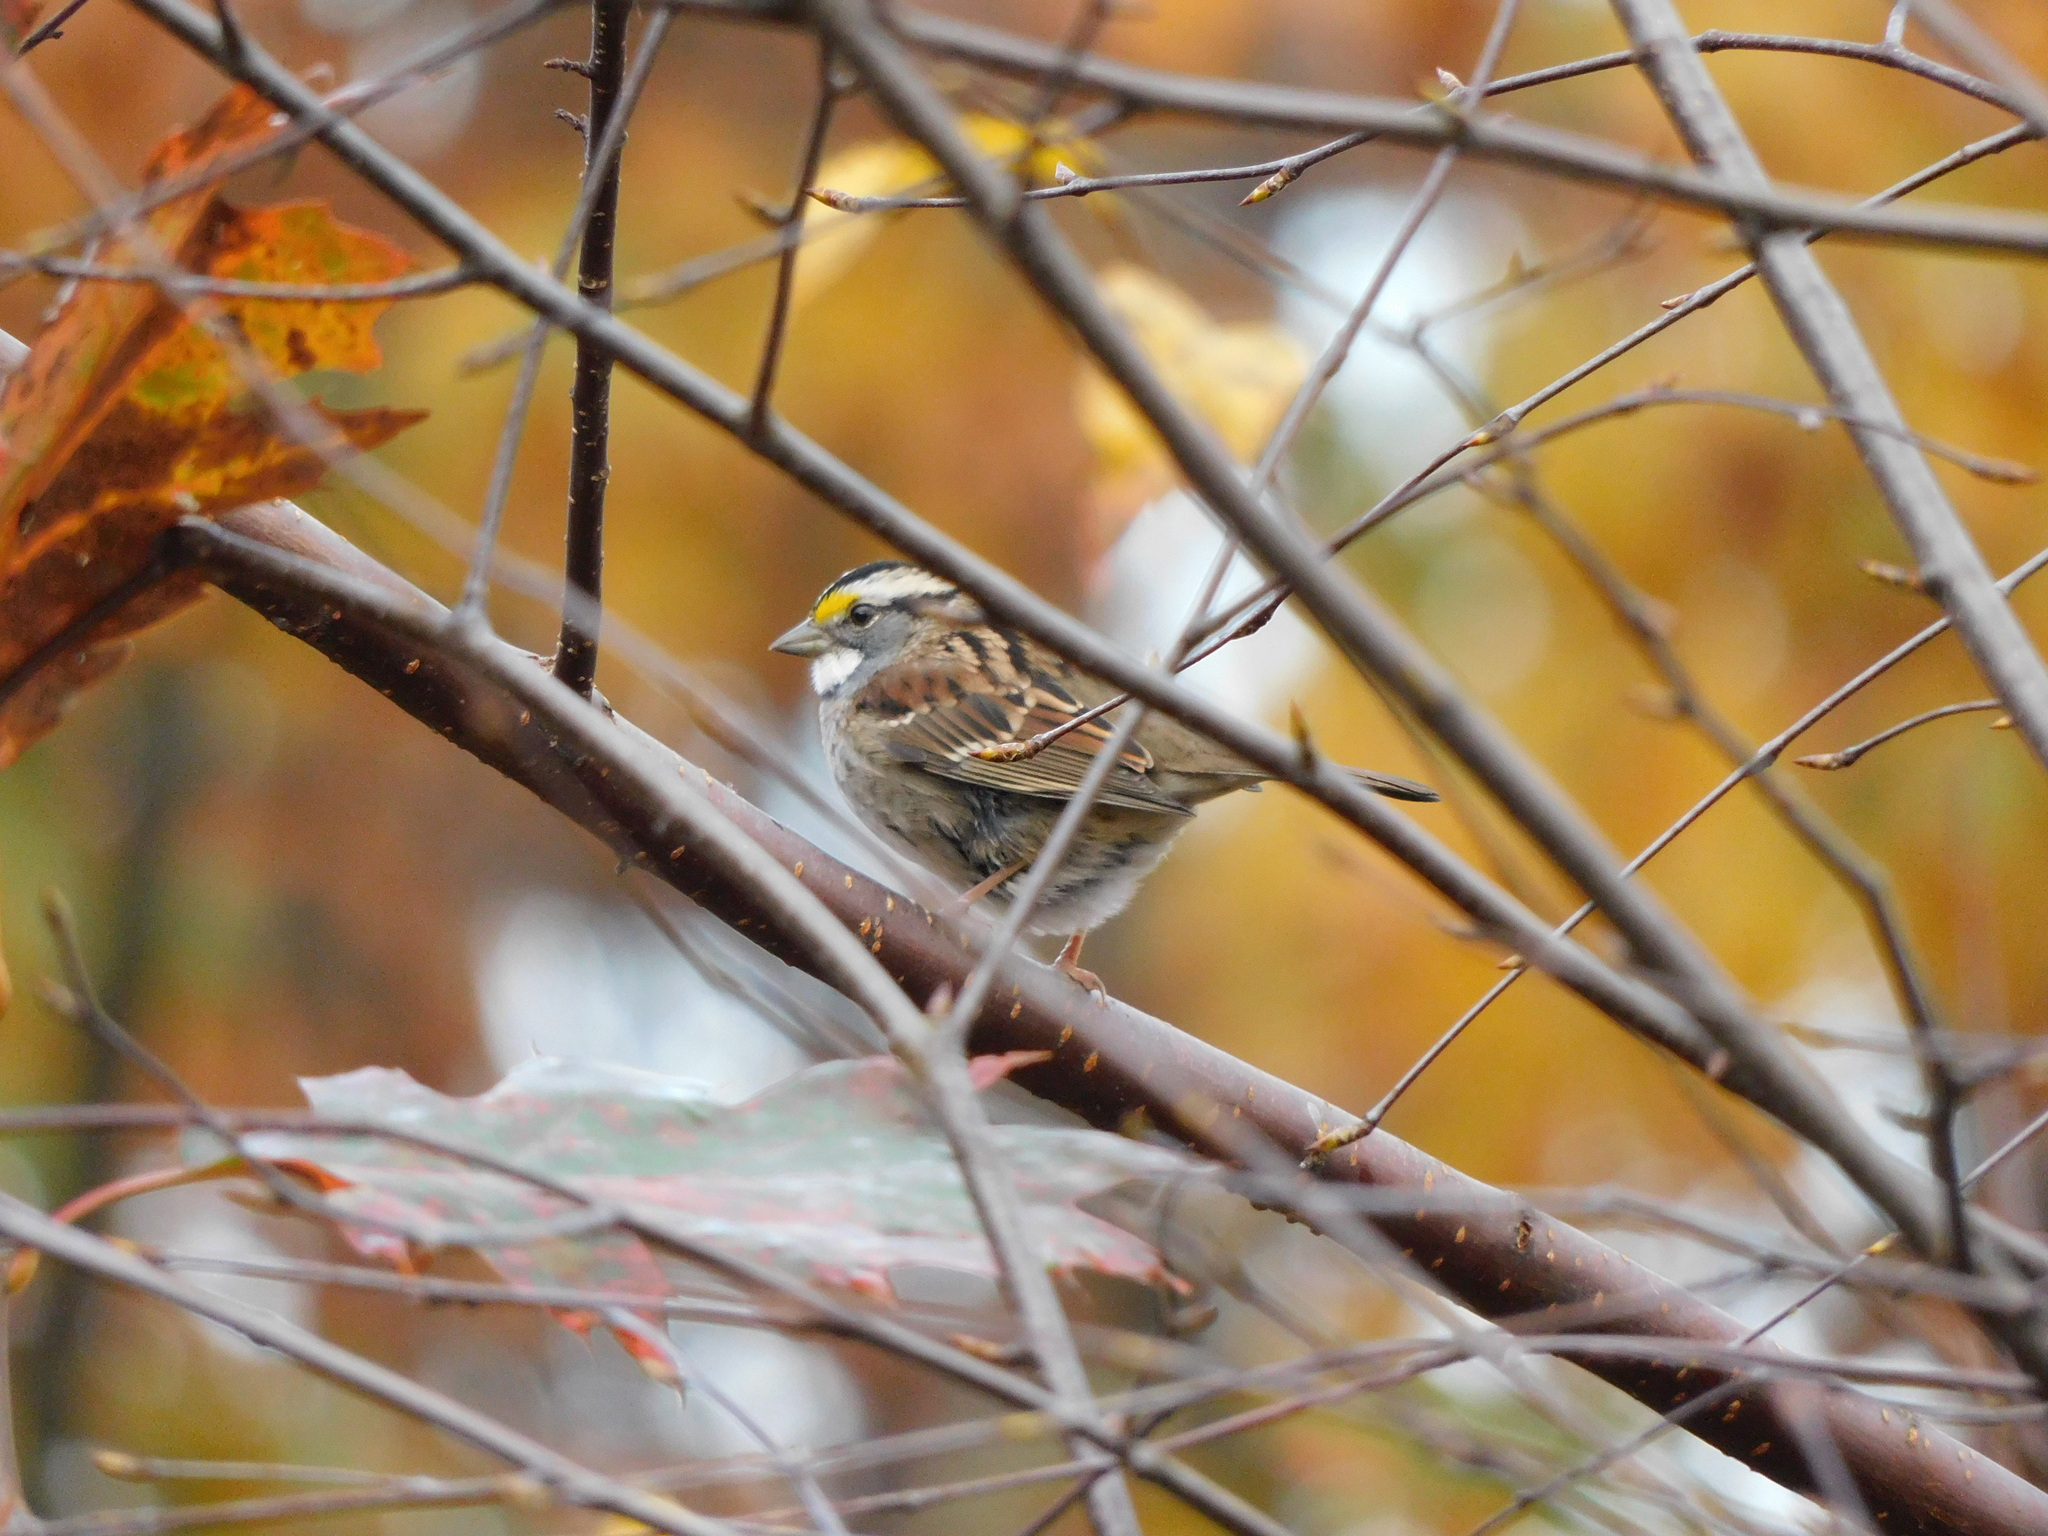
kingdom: Animalia
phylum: Chordata
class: Aves
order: Passeriformes
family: Passerellidae
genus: Zonotrichia
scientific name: Zonotrichia albicollis
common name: White-throated sparrow
